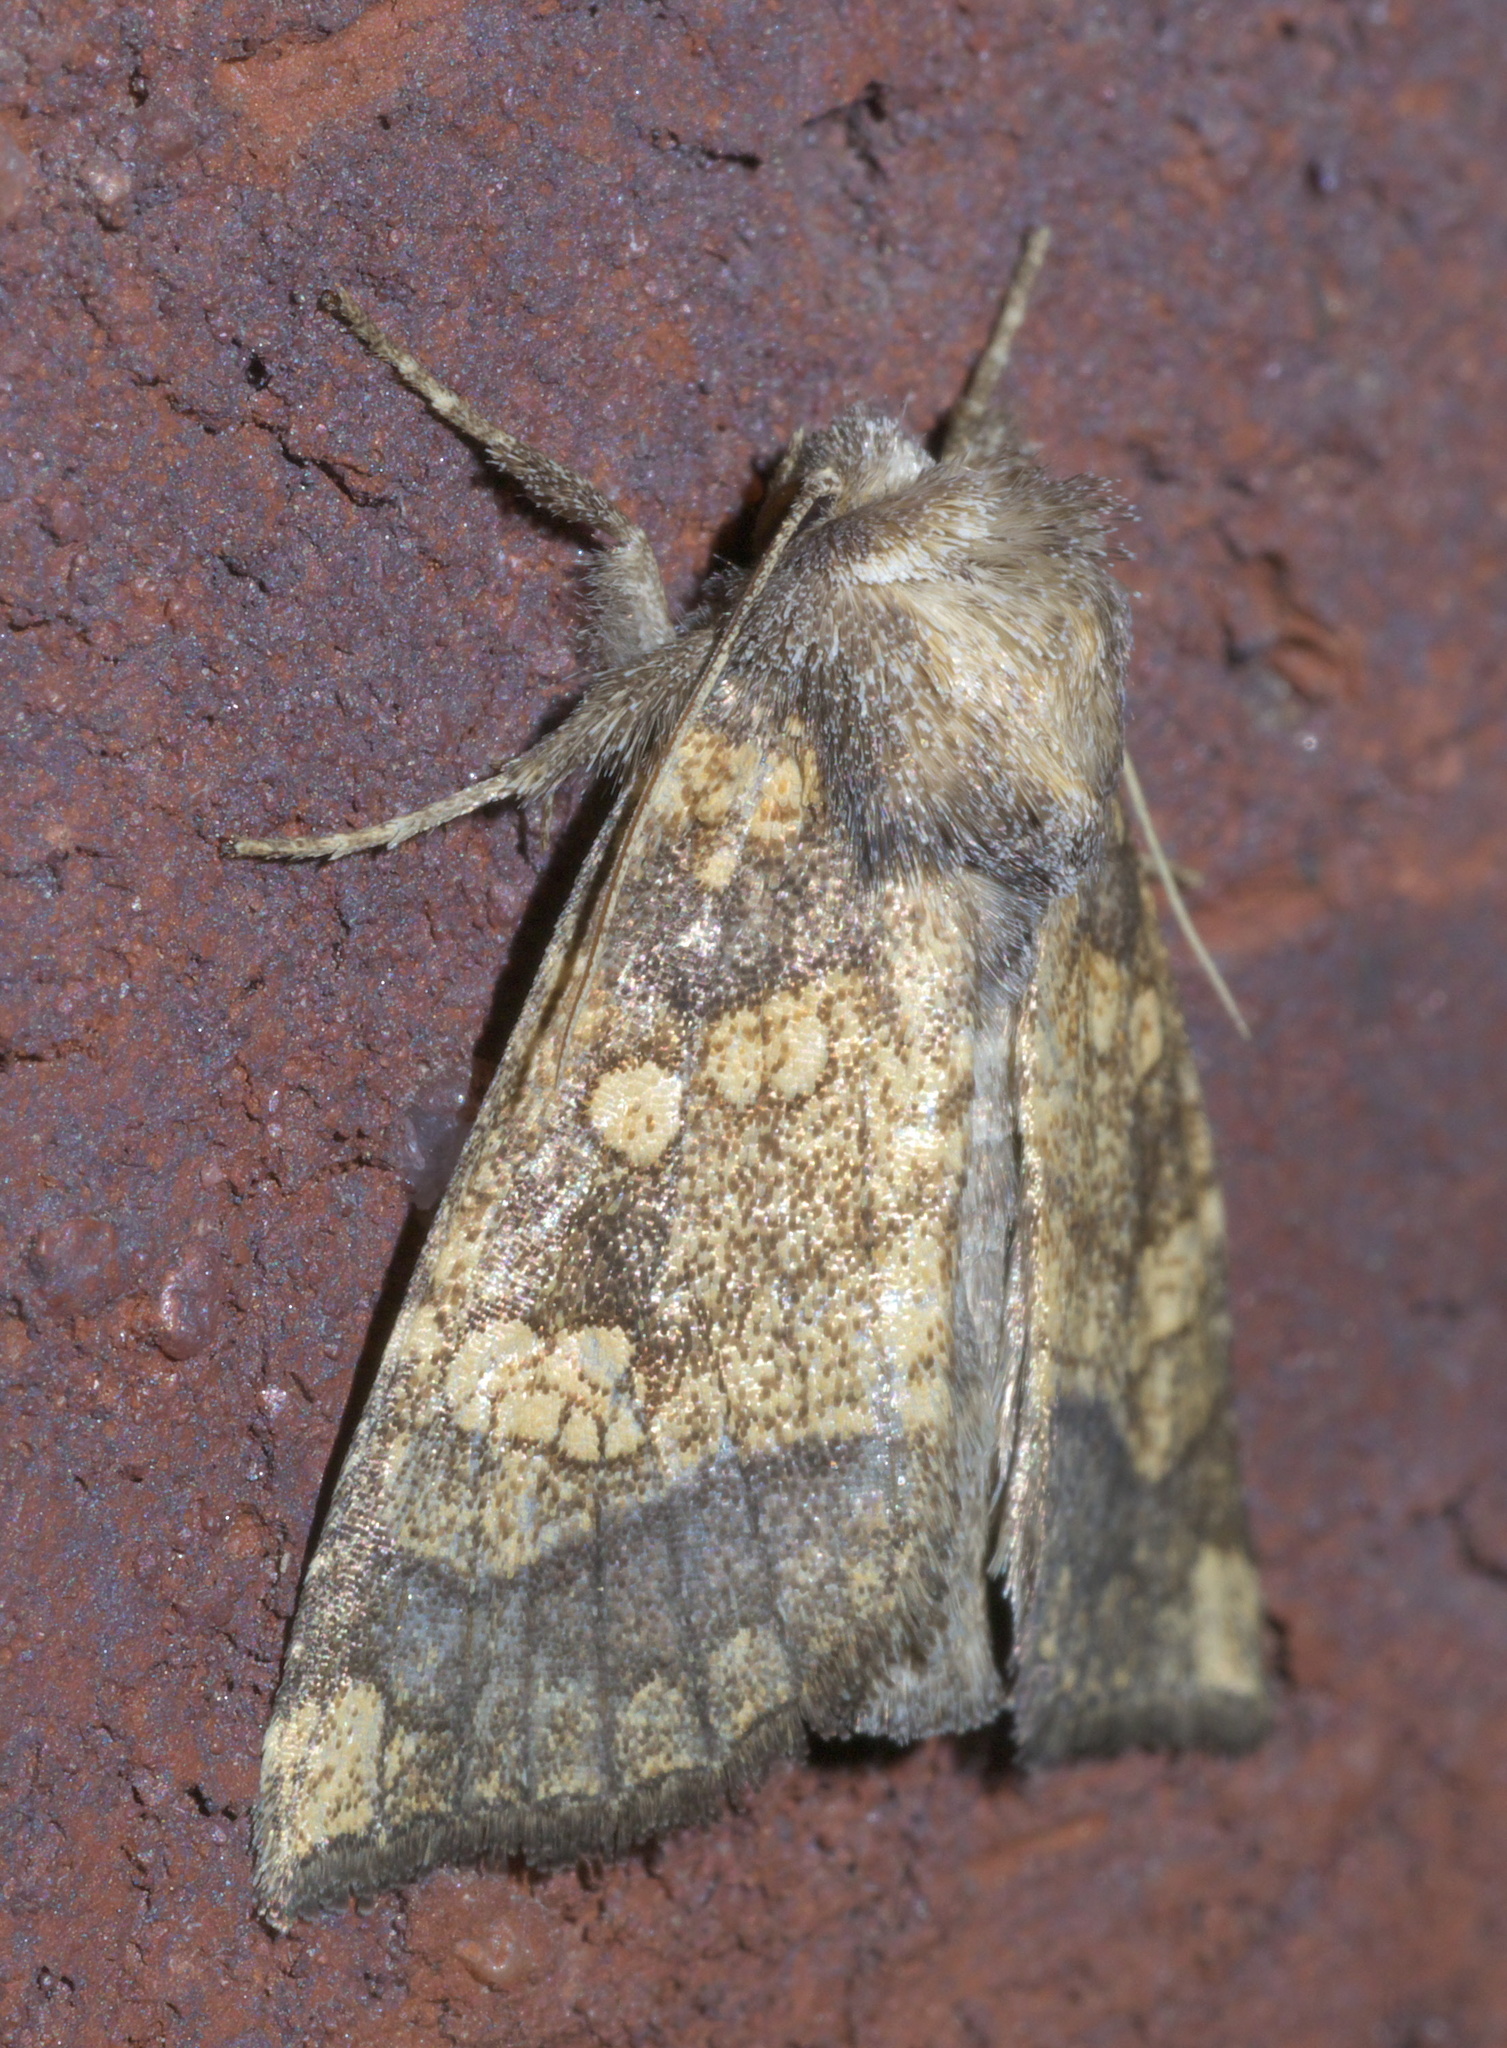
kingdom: Animalia
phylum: Arthropoda
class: Insecta
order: Lepidoptera
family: Noctuidae
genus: Papaipema
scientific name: Papaipema cataphracta
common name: Burdock borer
